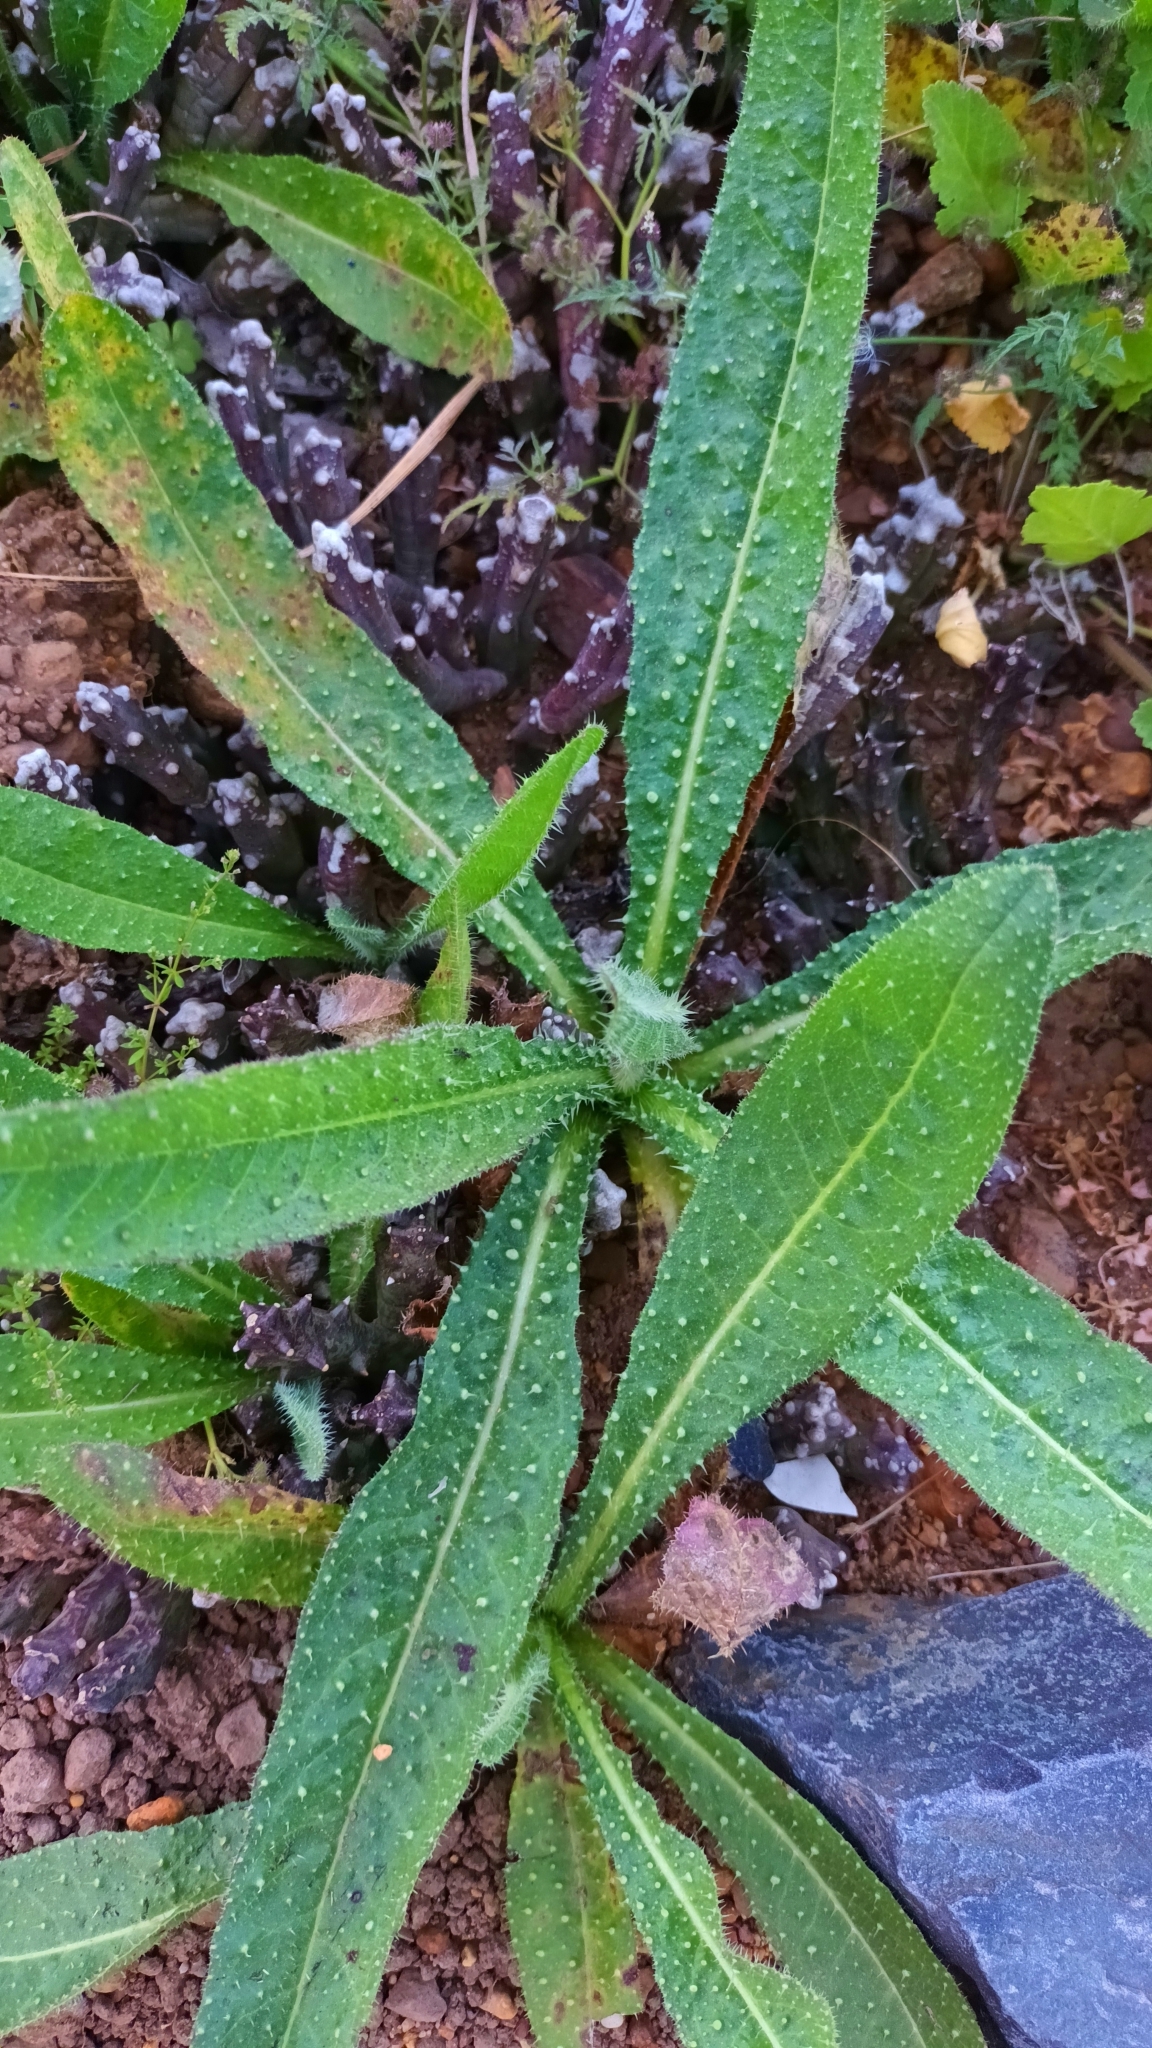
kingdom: Plantae
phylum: Tracheophyta
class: Magnoliopsida
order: Asterales
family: Asteraceae
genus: Helminthotheca
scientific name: Helminthotheca echioides
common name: Ox-tongue
